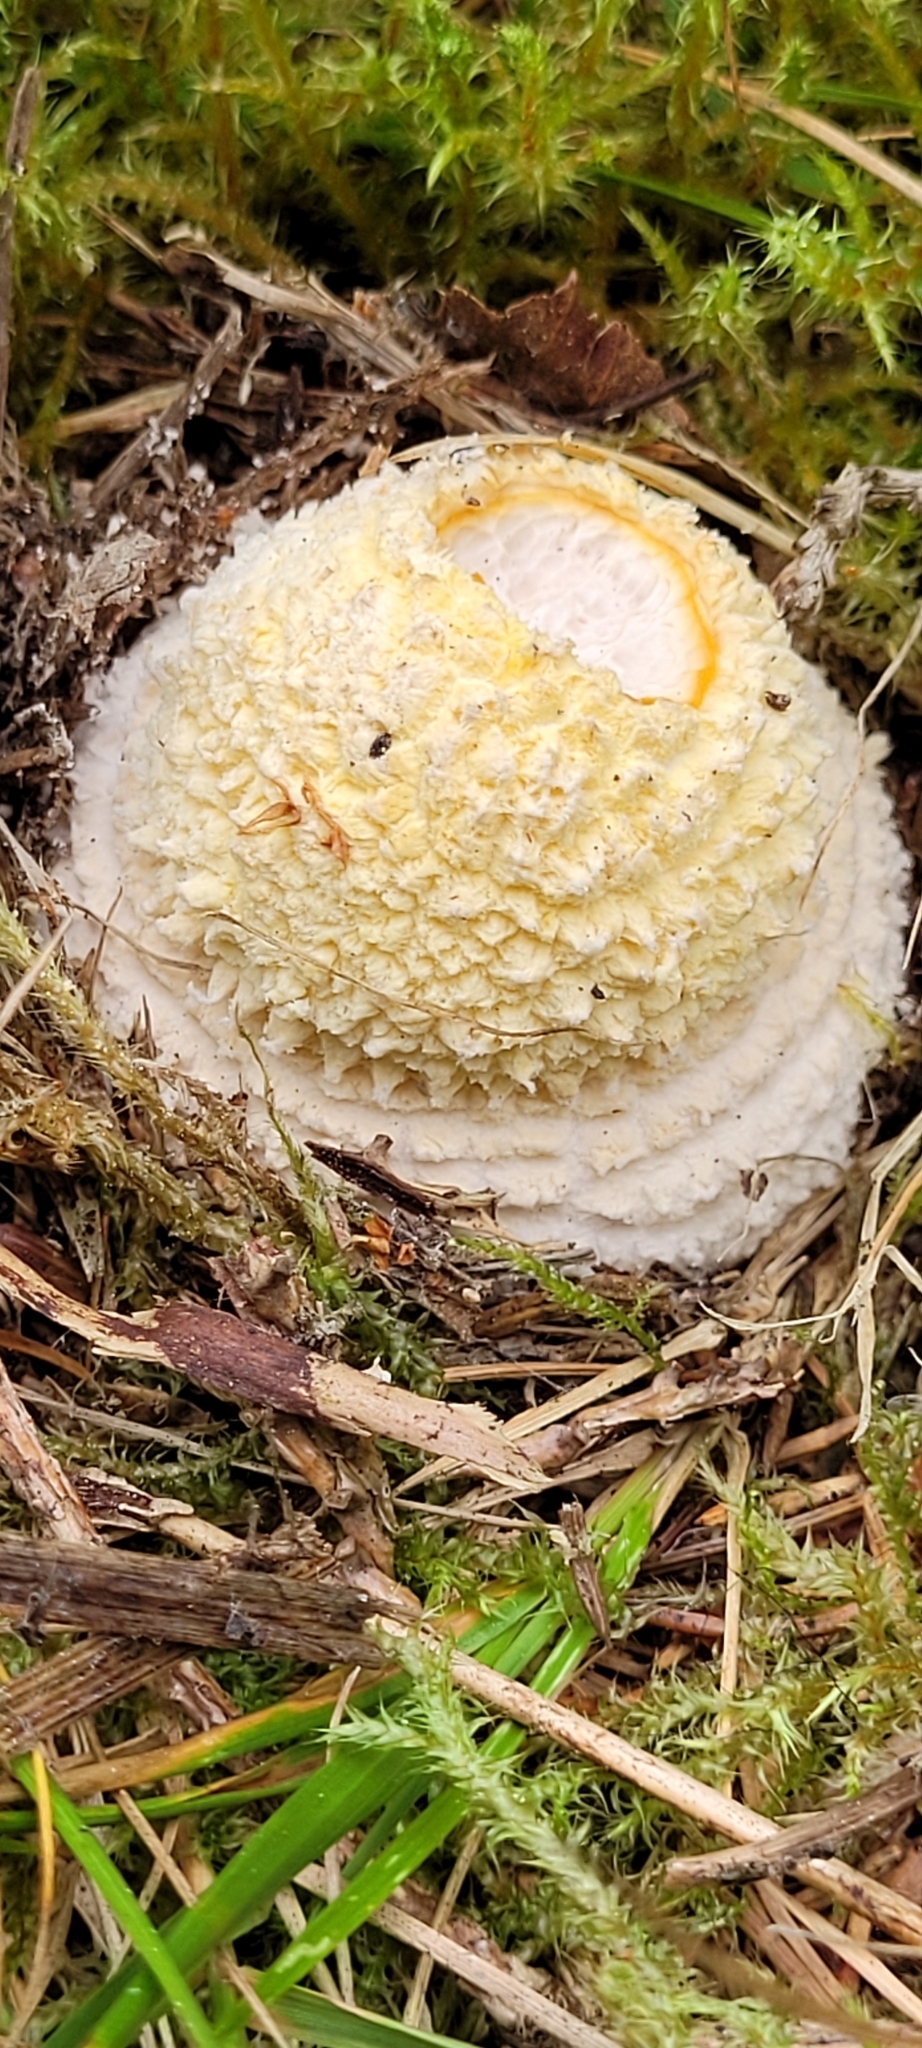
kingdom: Fungi
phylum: Basidiomycota
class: Agaricomycetes
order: Agaricales
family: Amanitaceae
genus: Amanita
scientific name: Amanita muscaria
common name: Fly agaric
